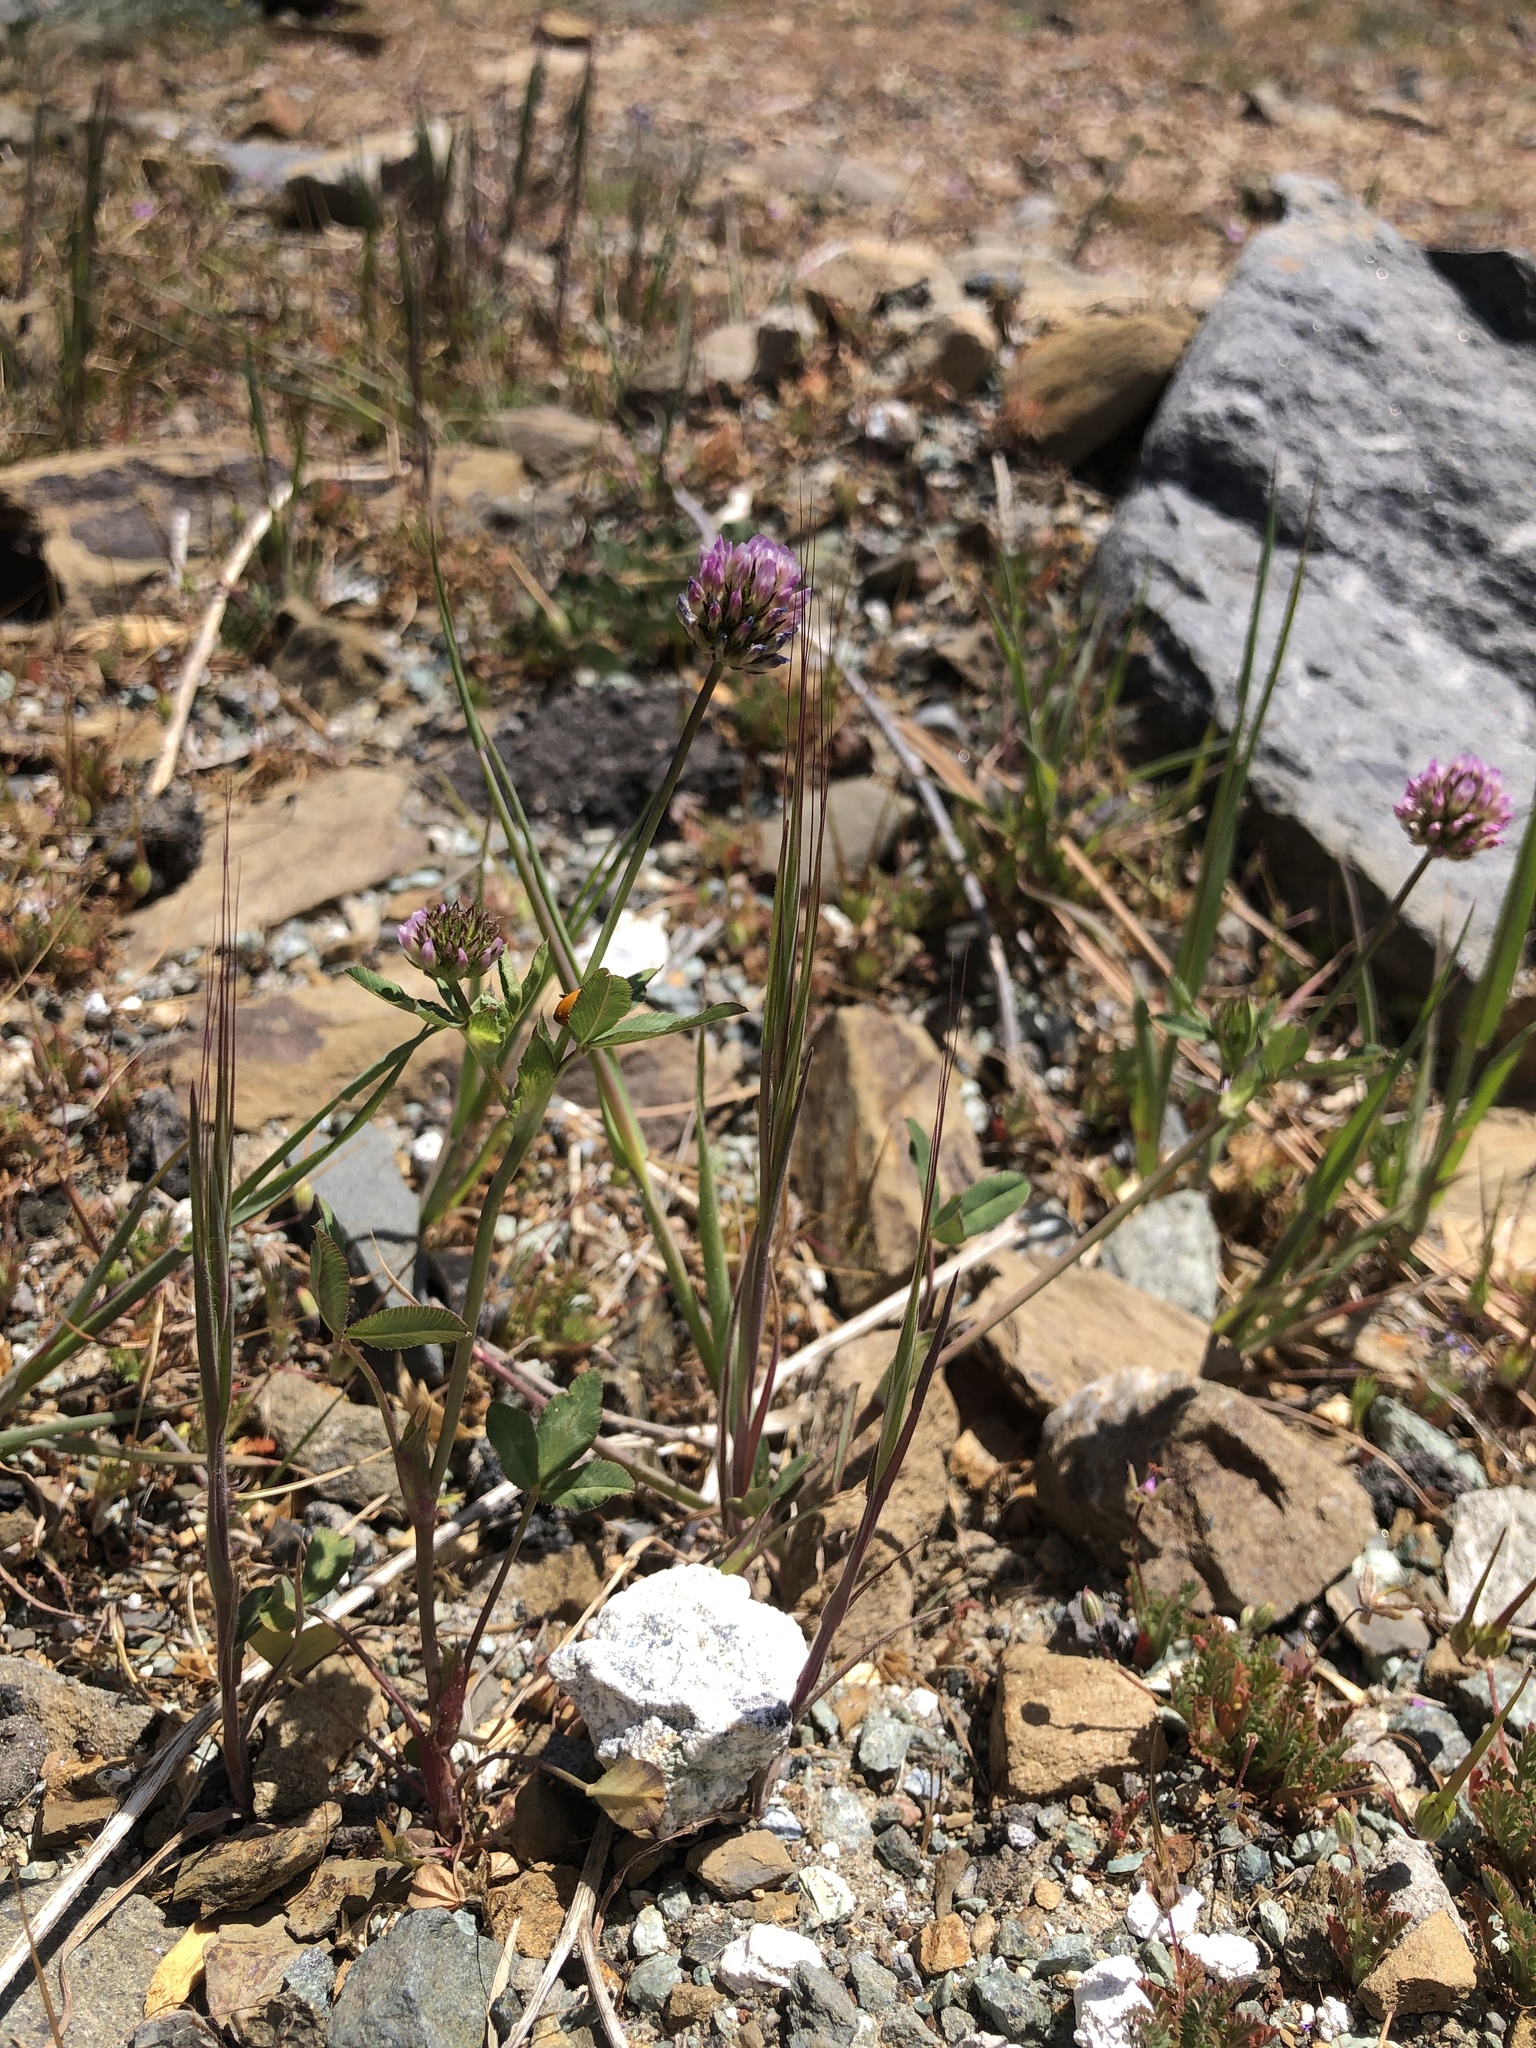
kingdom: Plantae
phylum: Tracheophyta
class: Magnoliopsida
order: Fabales
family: Fabaceae
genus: Trifolium
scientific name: Trifolium ciliolatum
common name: Foothill clover
